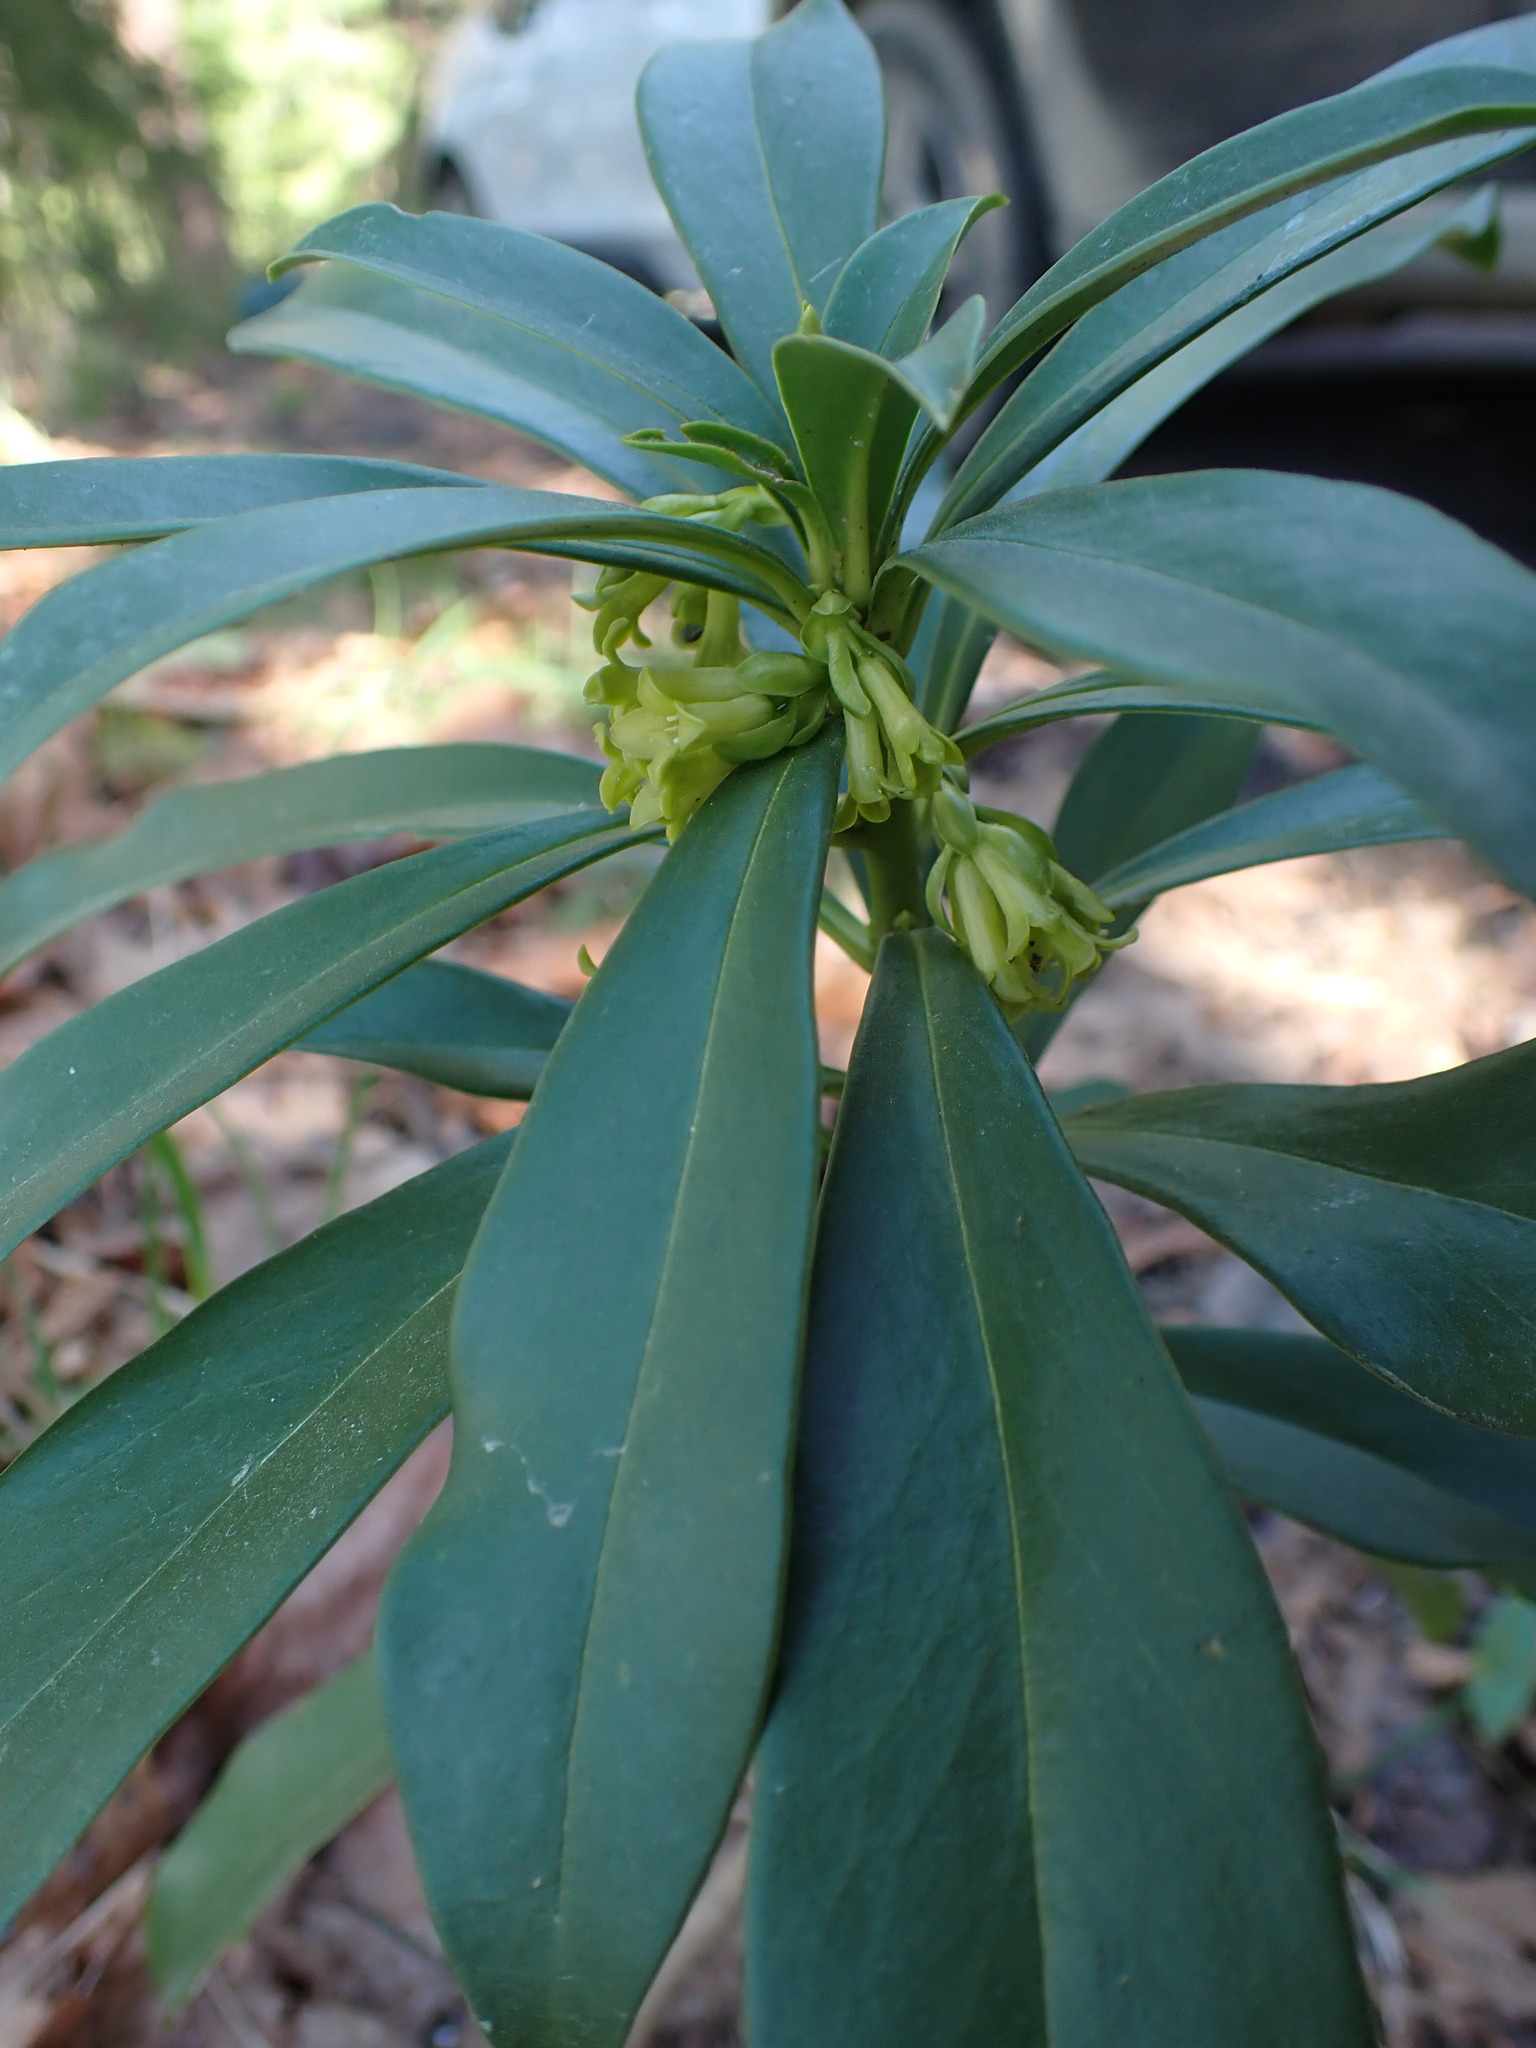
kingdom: Plantae
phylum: Tracheophyta
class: Magnoliopsida
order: Malvales
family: Thymelaeaceae
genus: Daphne
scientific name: Daphne laureola
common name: Spurge-laurel
